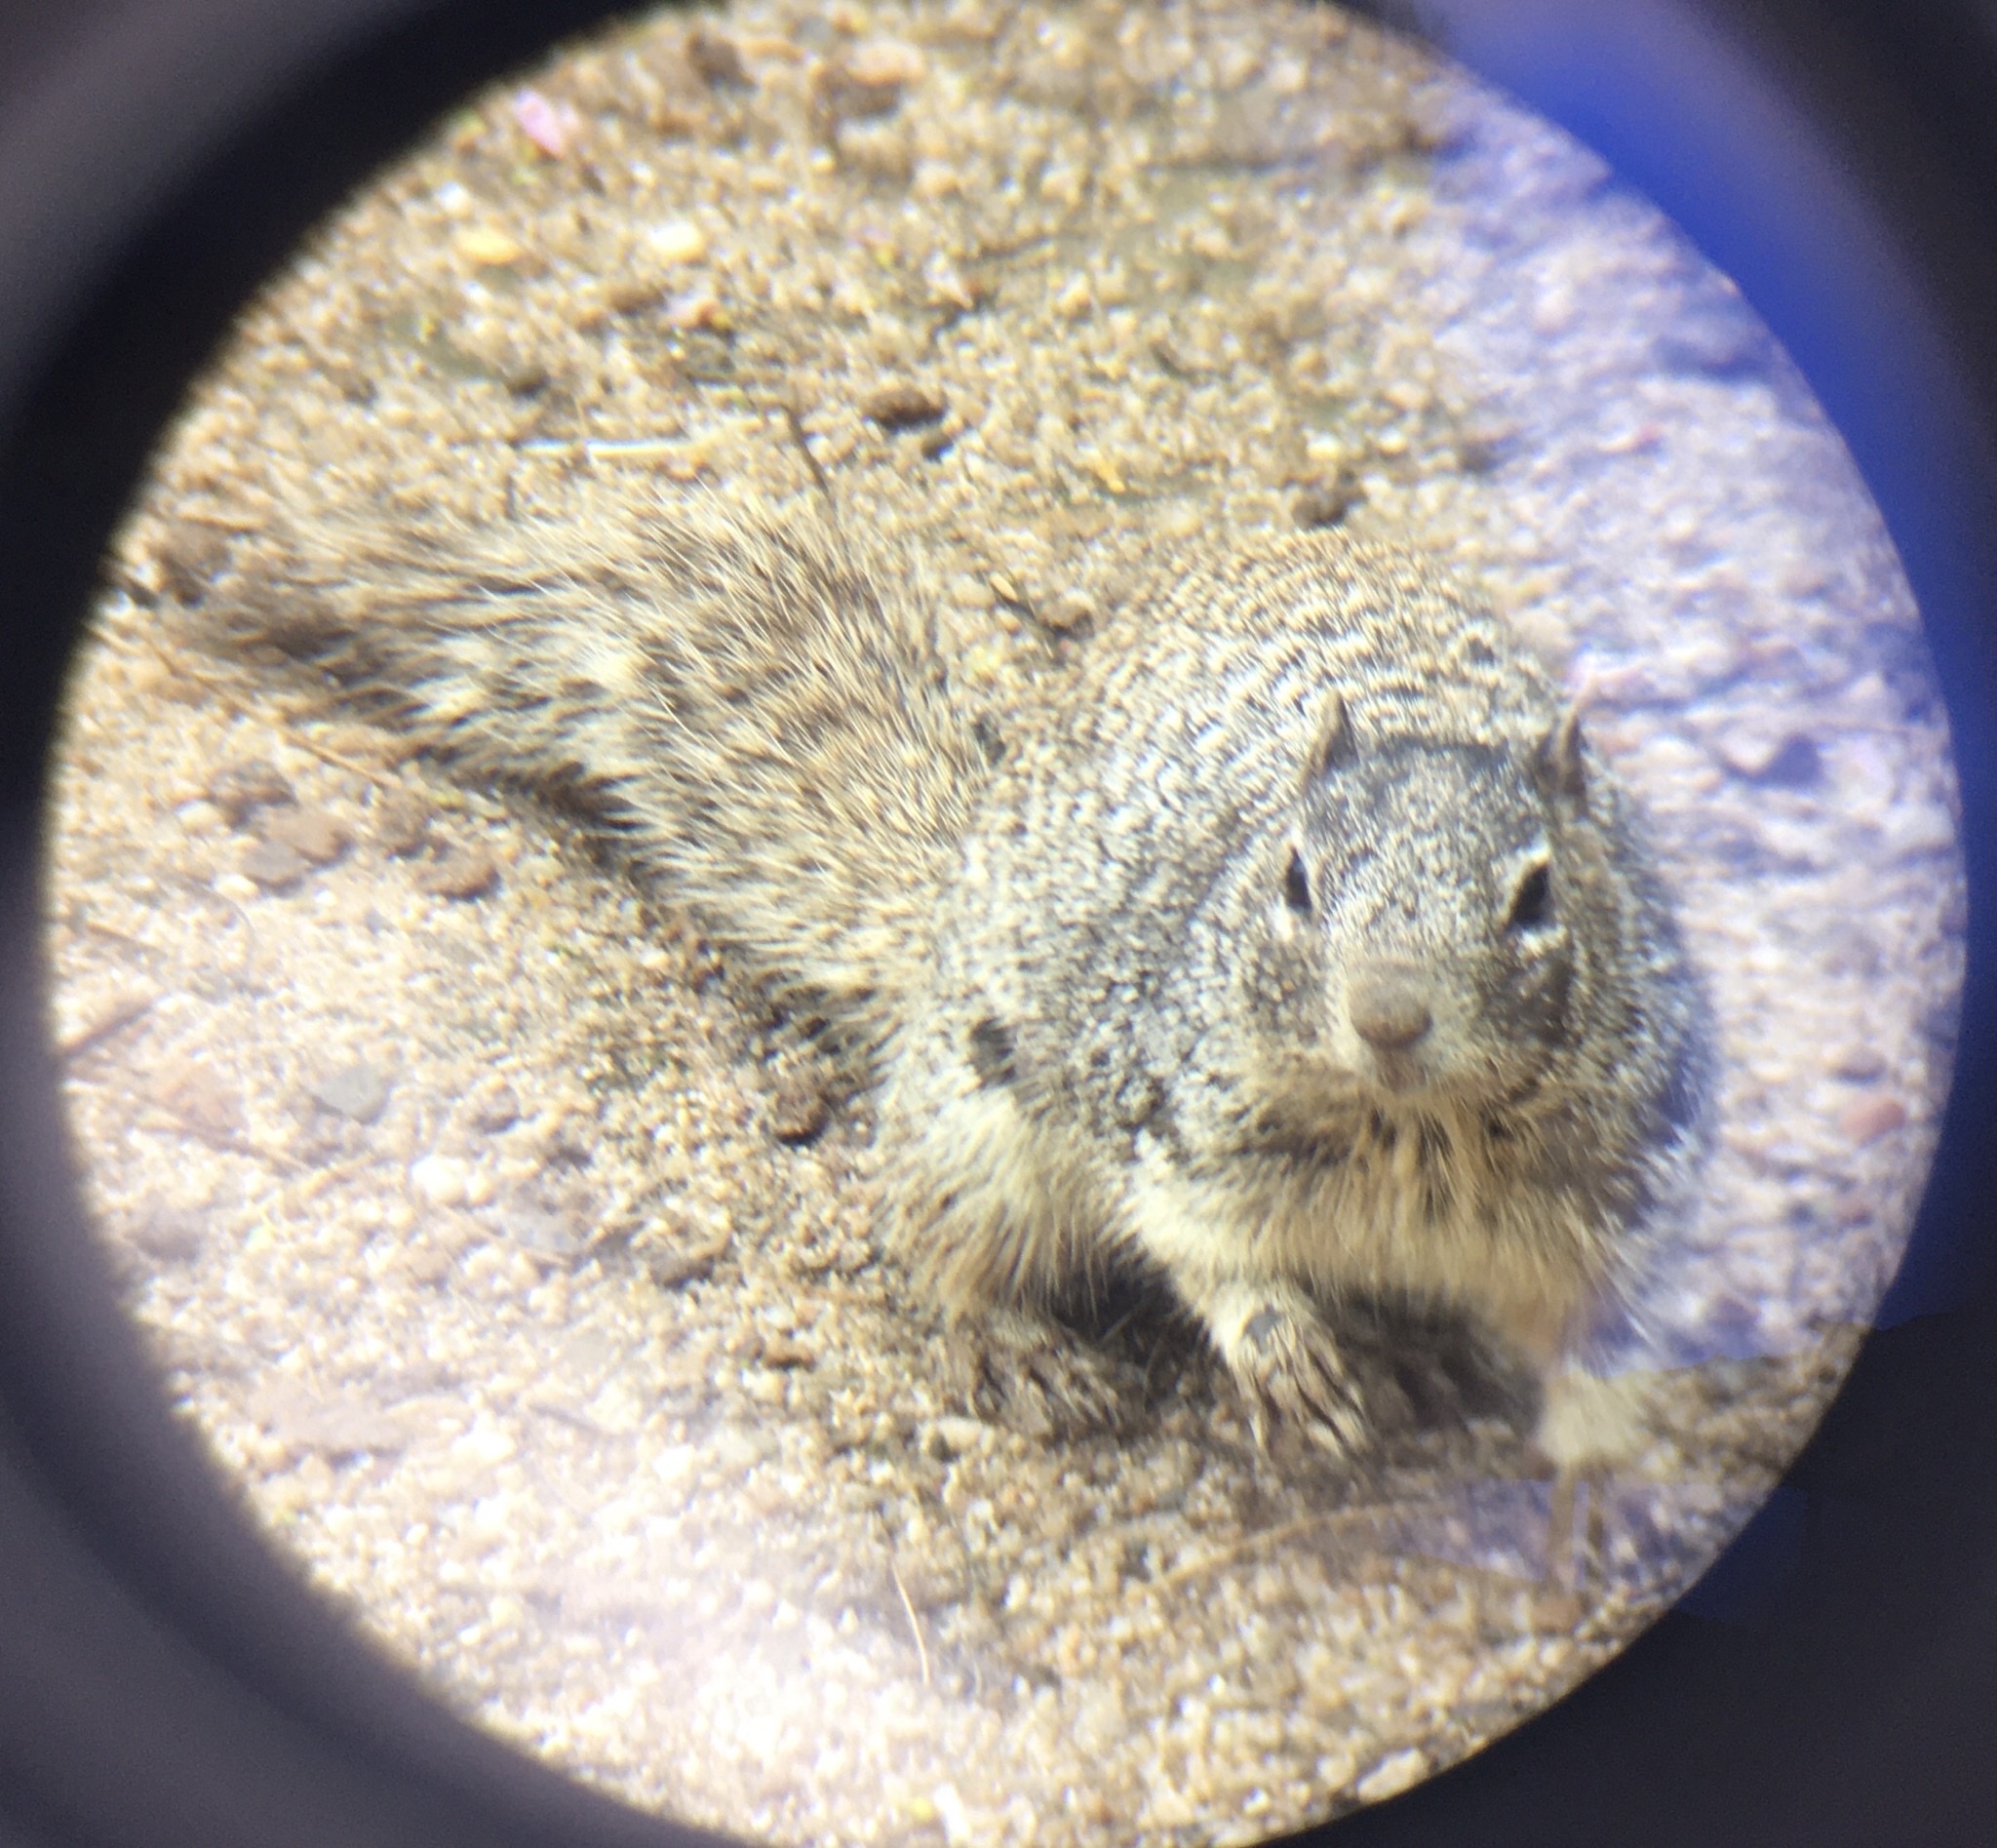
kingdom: Animalia
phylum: Chordata
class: Mammalia
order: Rodentia
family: Sciuridae
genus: Otospermophilus
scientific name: Otospermophilus variegatus
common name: Rock squirrel
